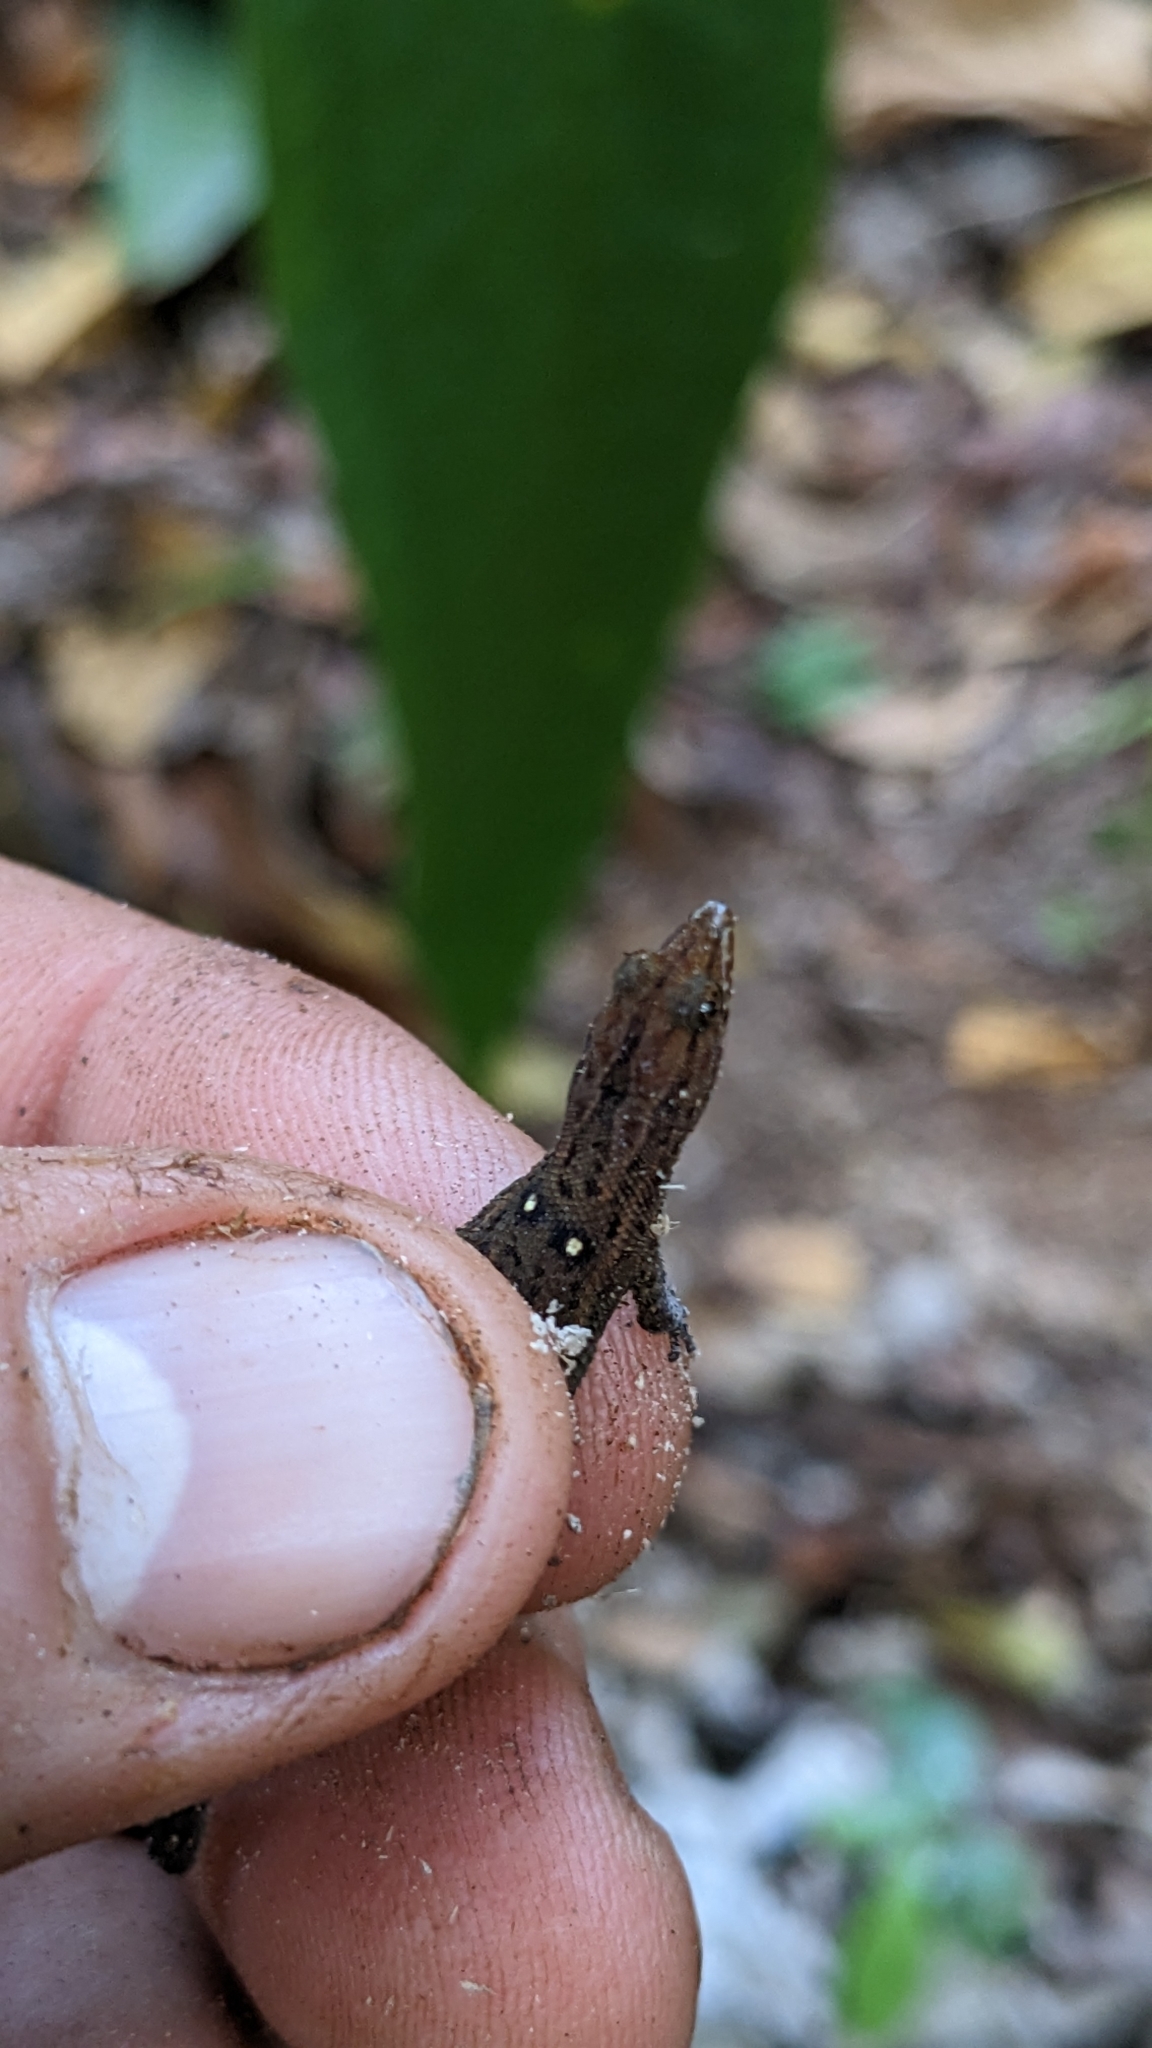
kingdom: Animalia
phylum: Chordata
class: Squamata
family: Sphaerodactylidae
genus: Sphaerodactylus
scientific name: Sphaerodactylus celicara
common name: Baracoan eyespot sphaero
